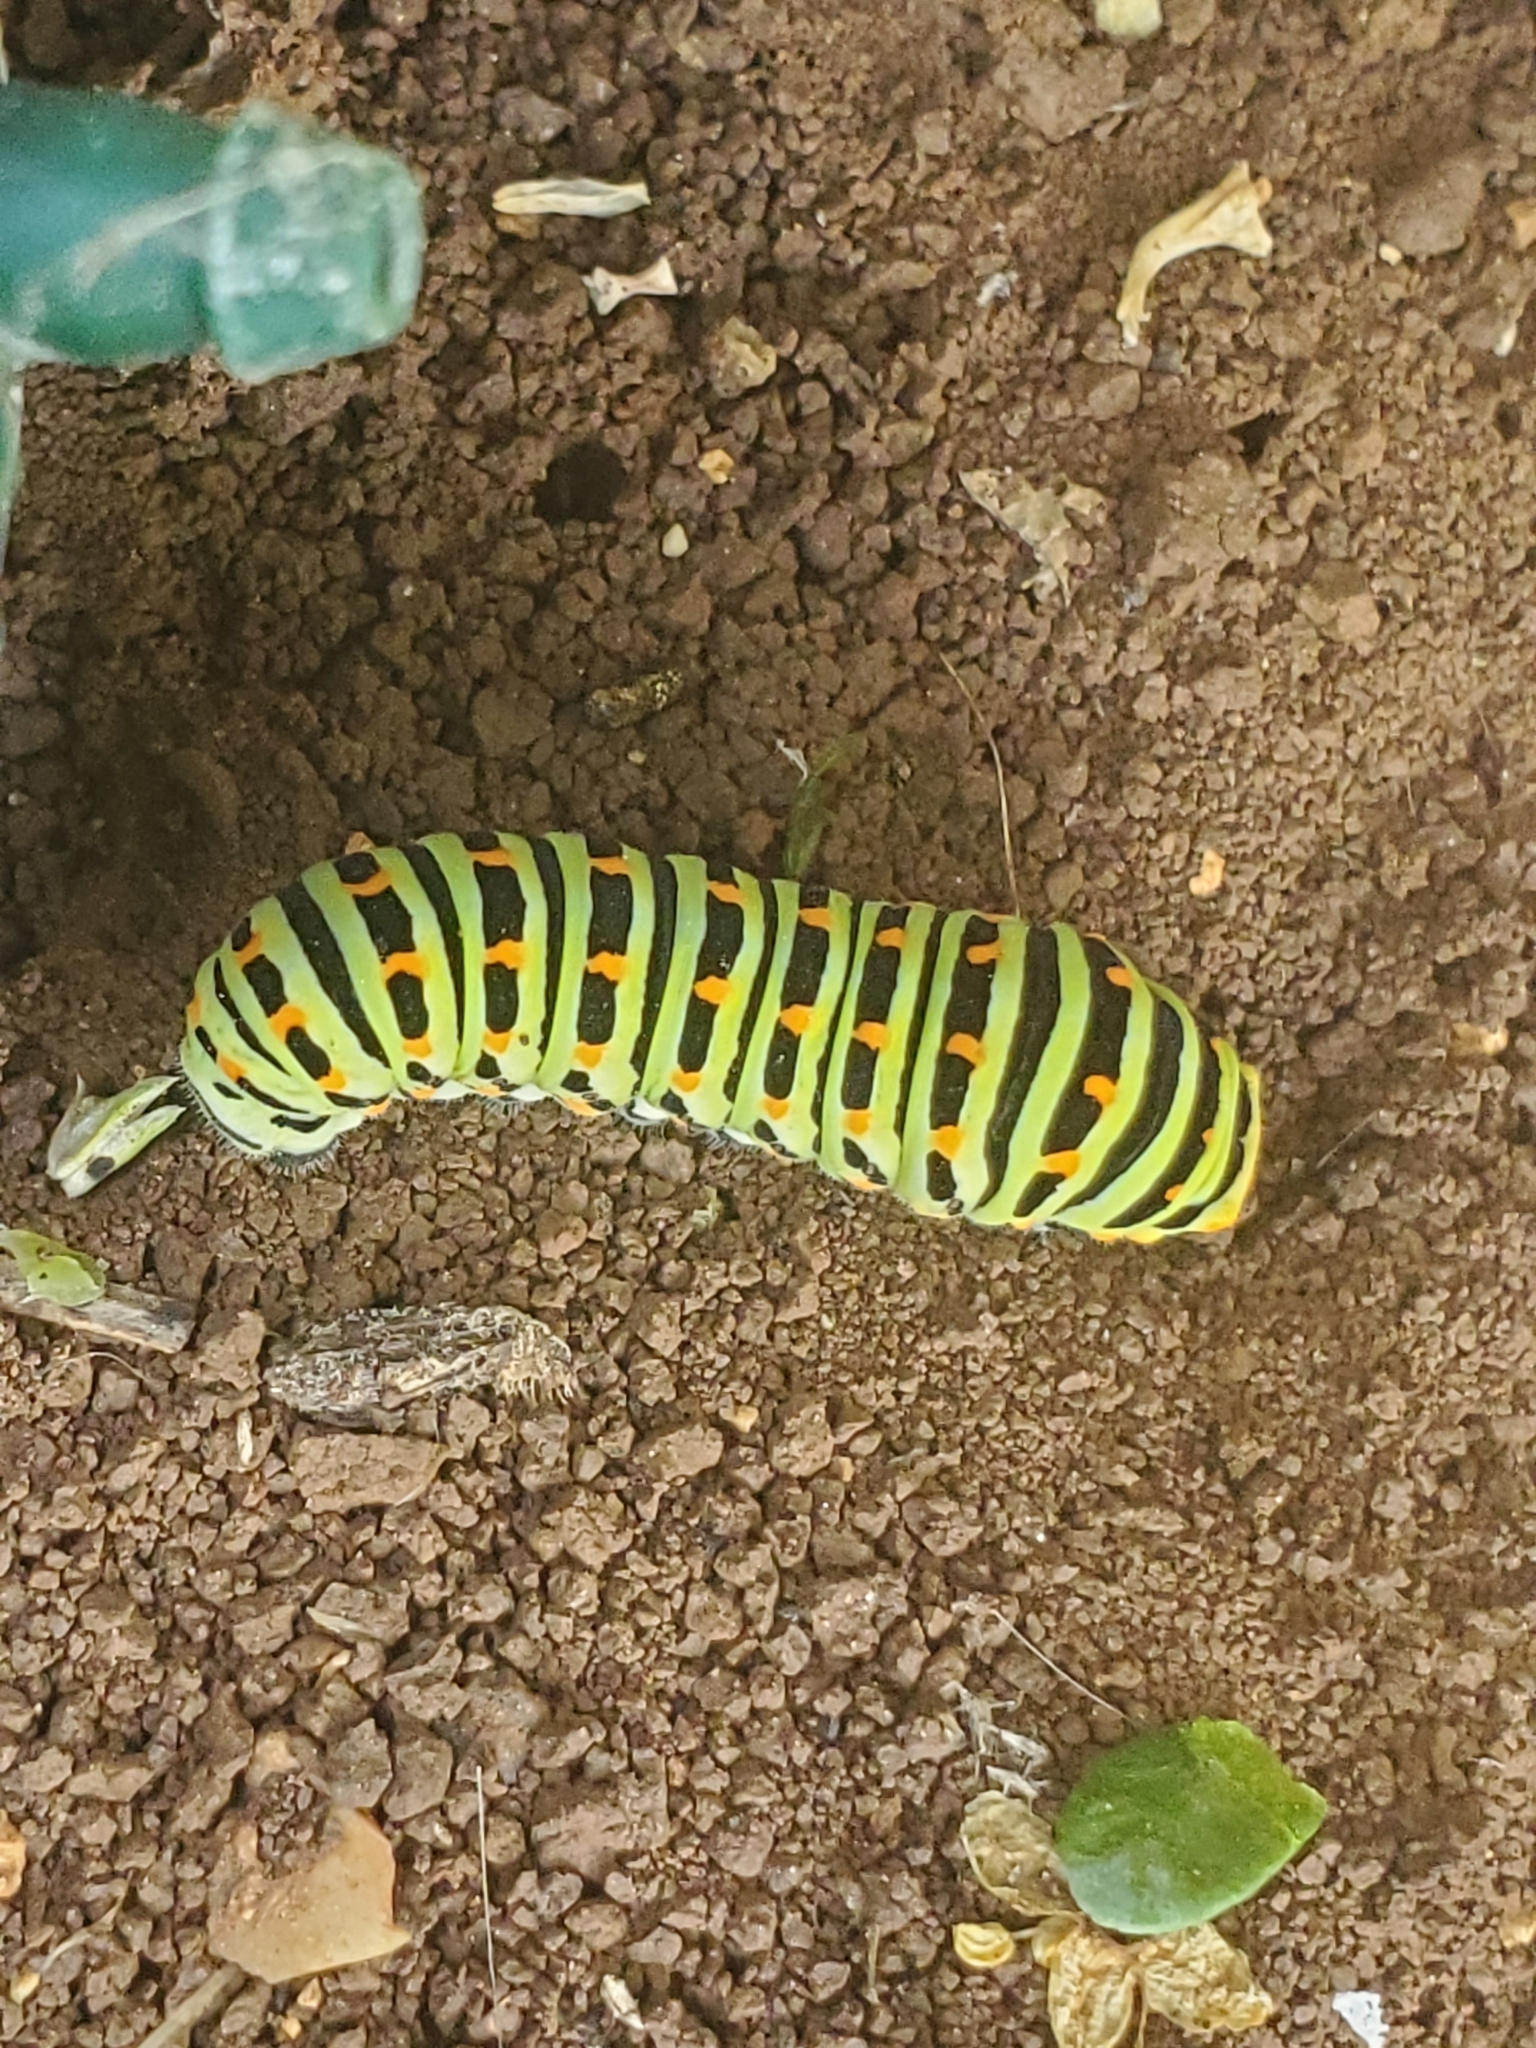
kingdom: Animalia
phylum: Arthropoda
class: Insecta
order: Lepidoptera
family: Papilionidae
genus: Papilio
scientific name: Papilio machaon
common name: Swallowtail
